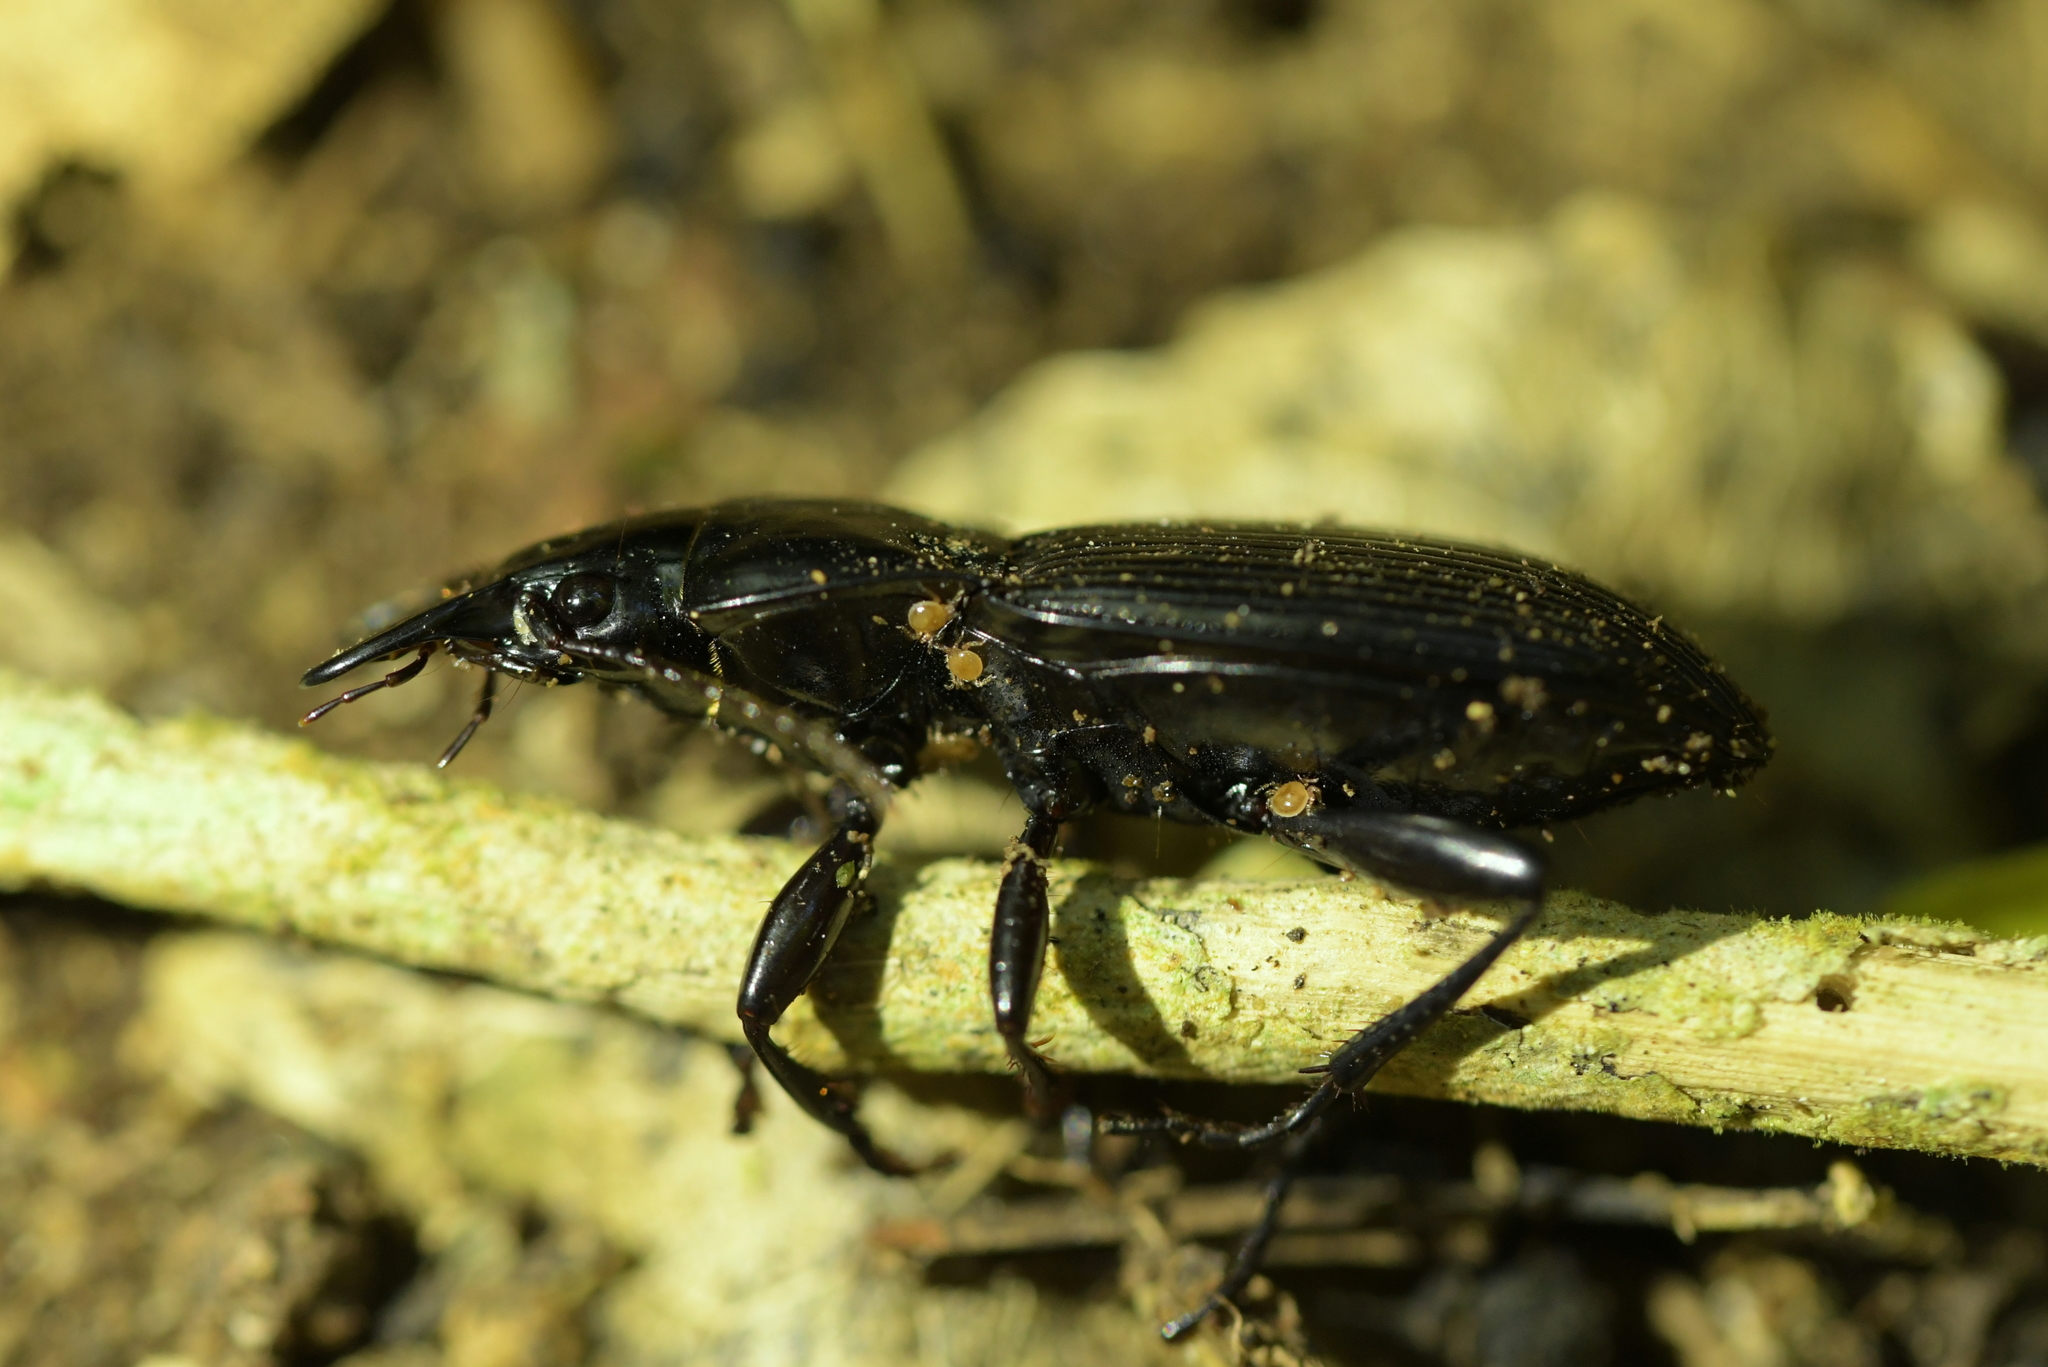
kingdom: Animalia
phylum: Arthropoda
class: Insecta
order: Coleoptera
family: Carabidae
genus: Plocamostethus
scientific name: Plocamostethus planiusculus
